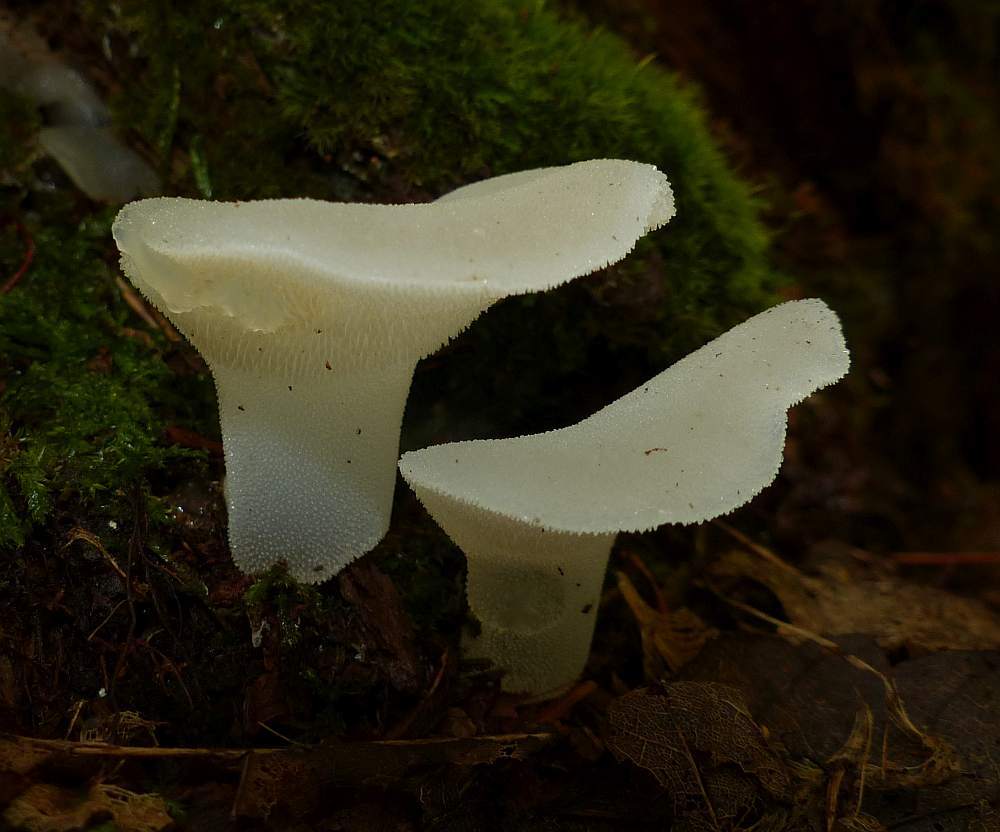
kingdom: Fungi
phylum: Basidiomycota
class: Agaricomycetes
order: Auriculariales
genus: Pseudohydnum
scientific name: Pseudohydnum gelatinosum
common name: Jelly tongue
